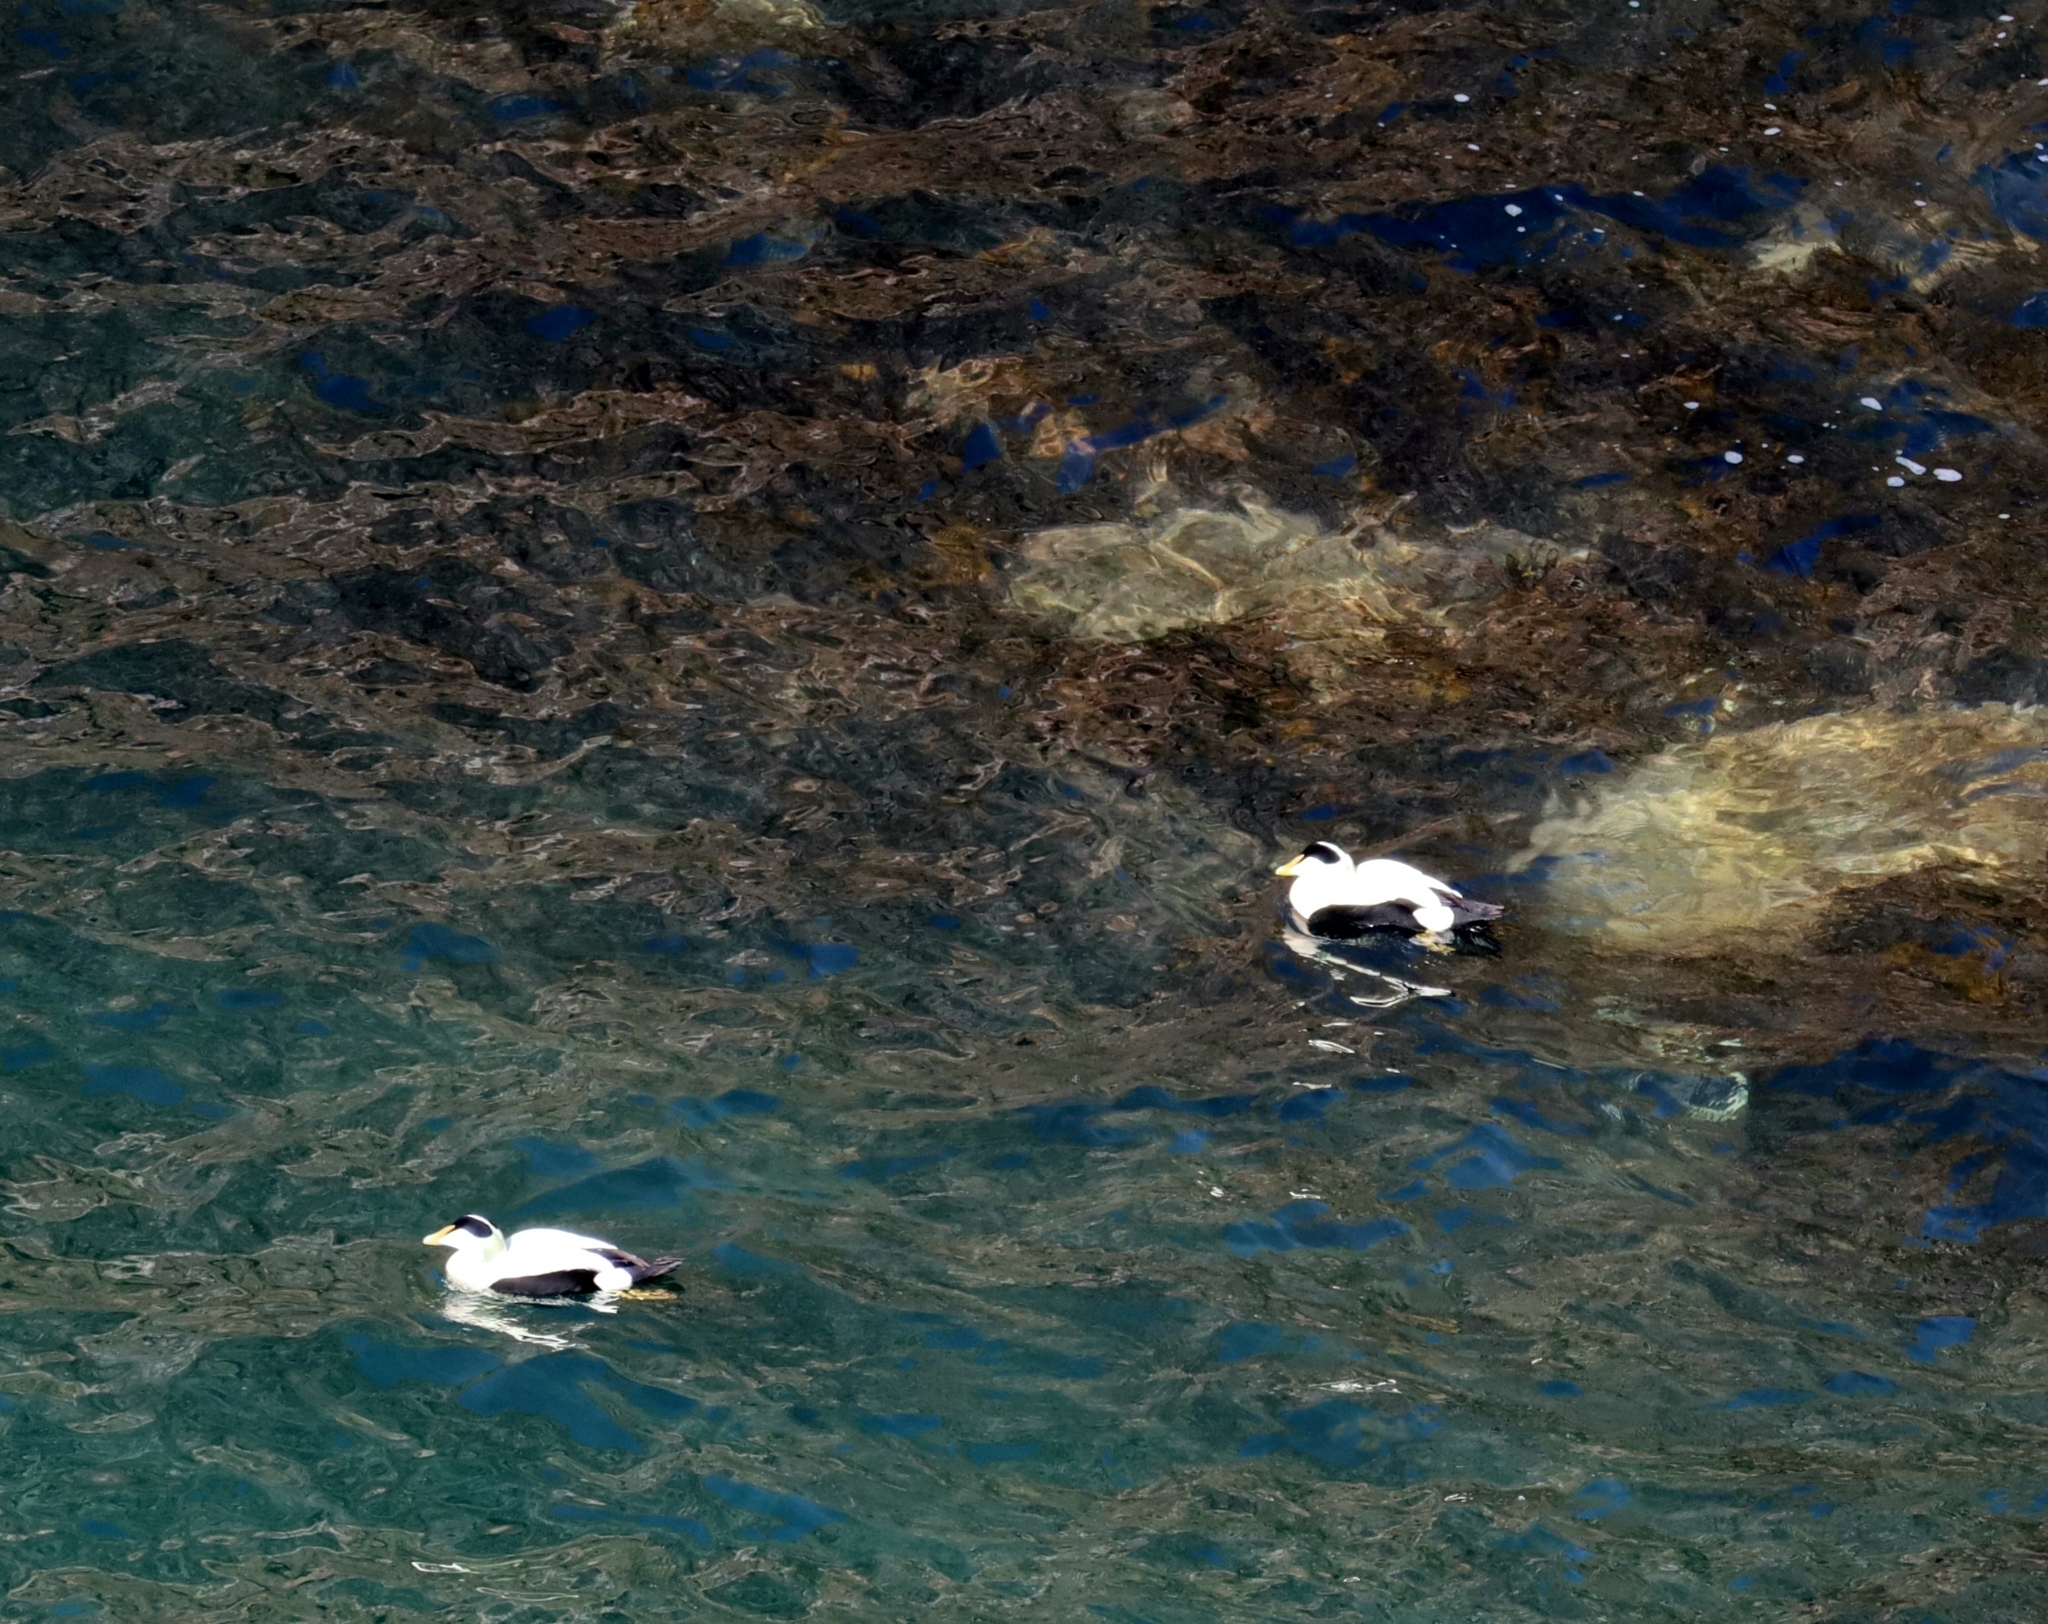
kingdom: Animalia
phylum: Chordata
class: Aves
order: Anseriformes
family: Anatidae
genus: Somateria
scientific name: Somateria mollissima
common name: Common eider
